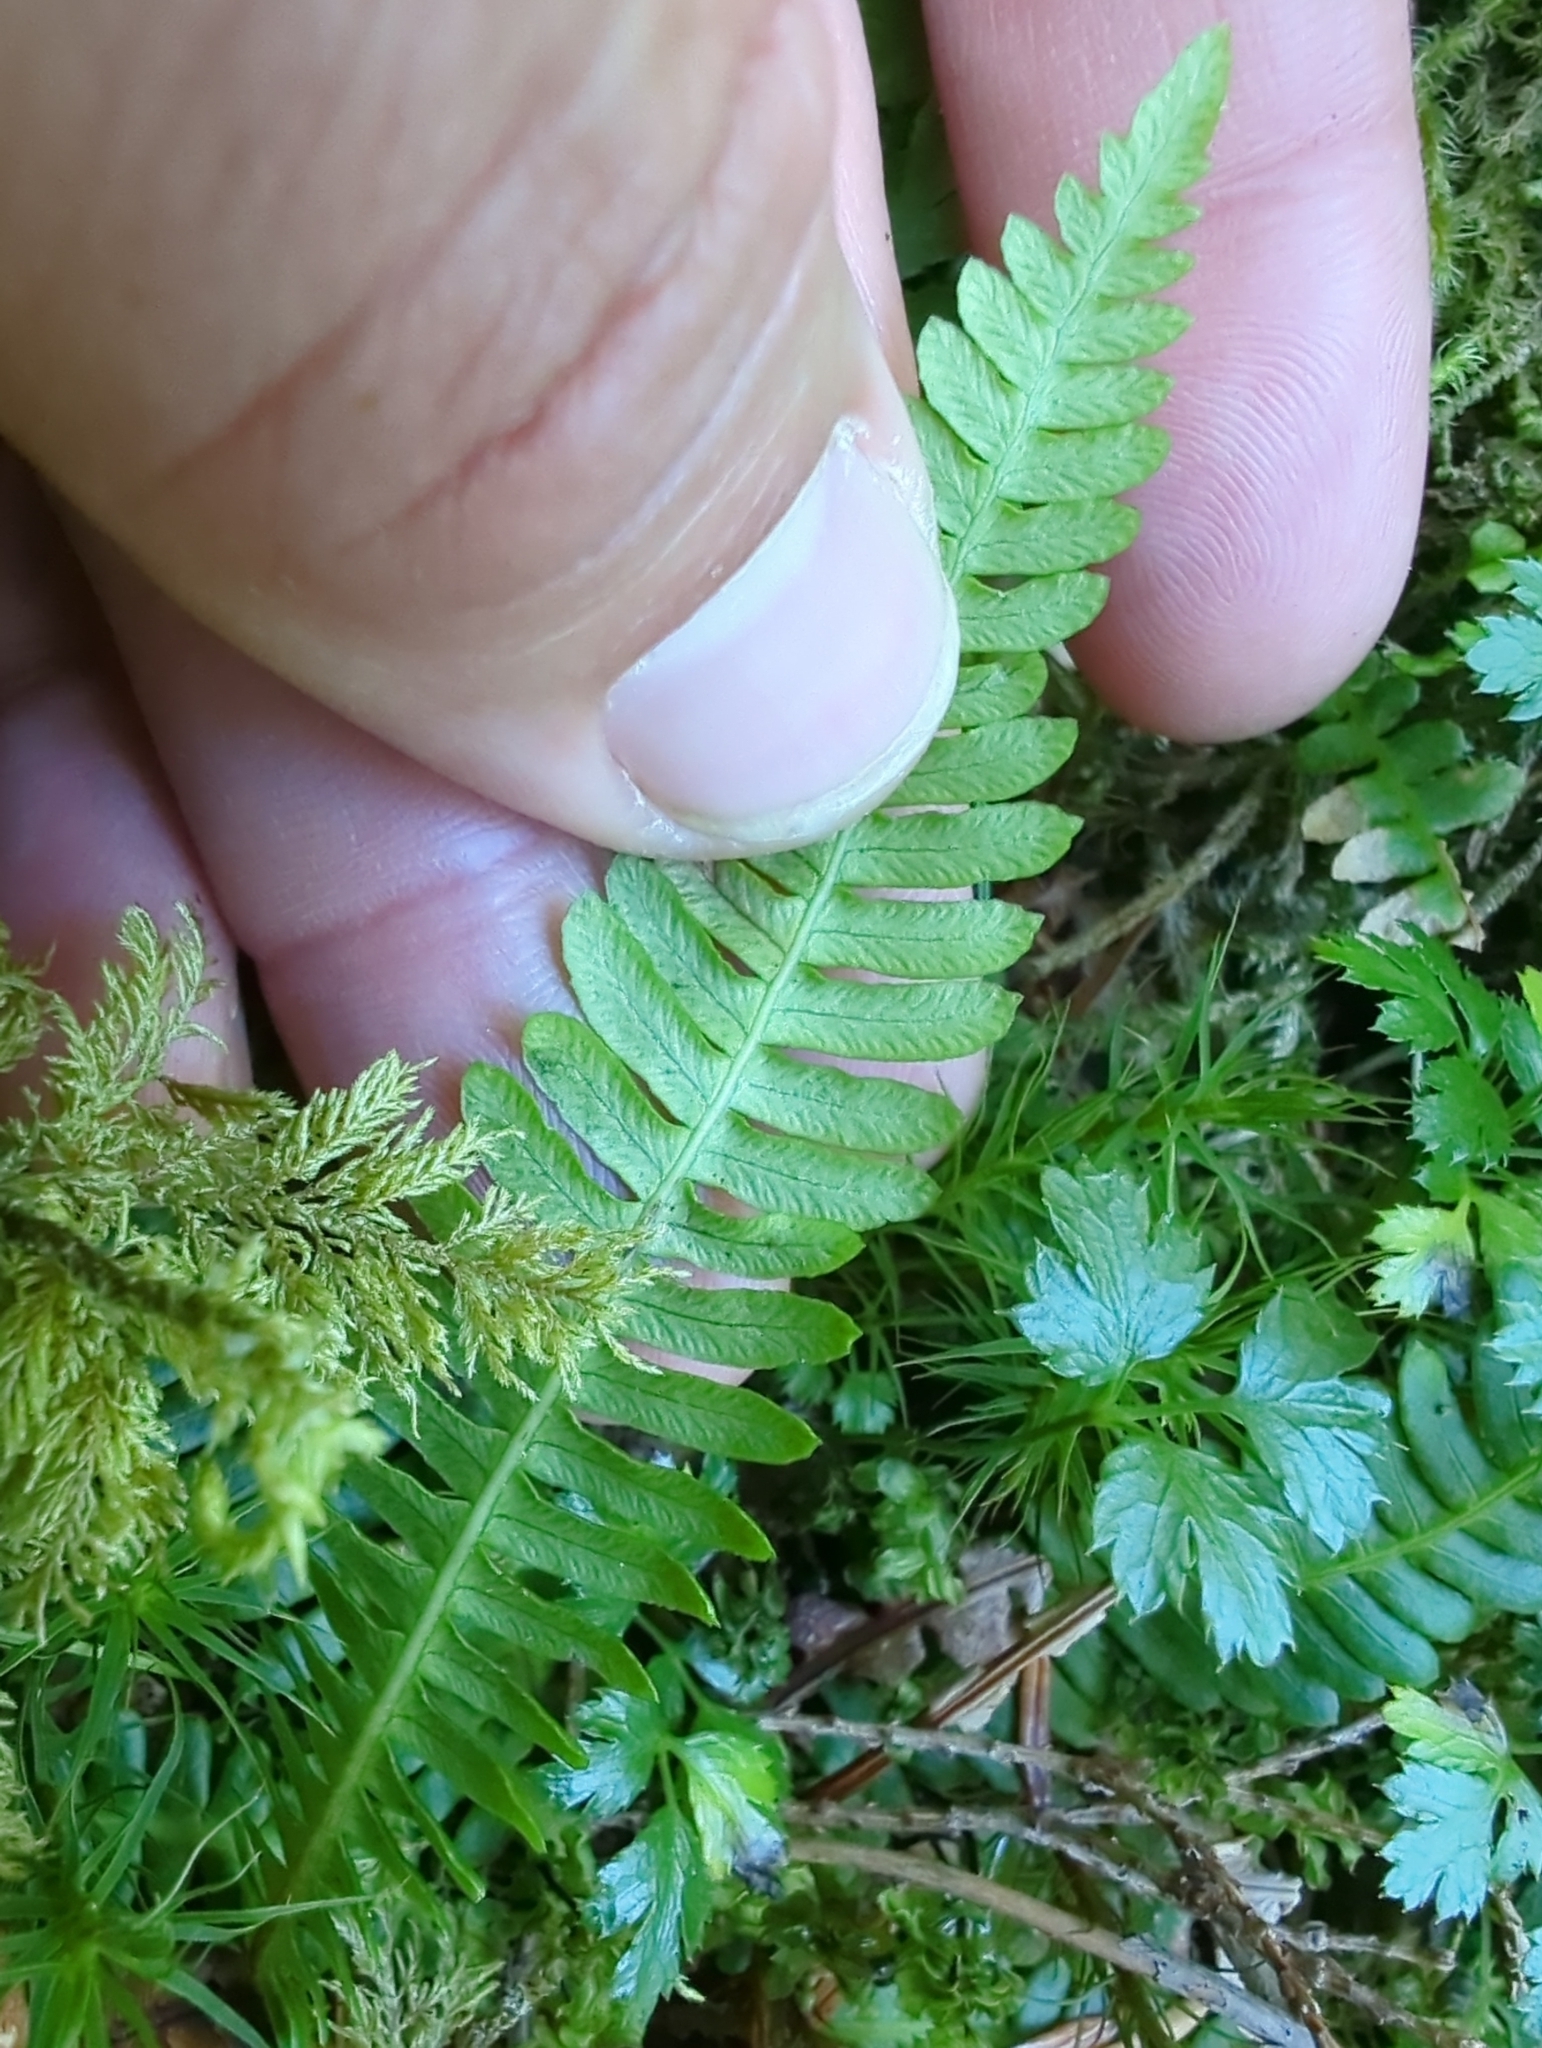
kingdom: Plantae
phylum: Tracheophyta
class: Polypodiopsida
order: Polypodiales
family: Blechnaceae
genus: Struthiopteris
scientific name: Struthiopteris spicant
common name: Deer fern
